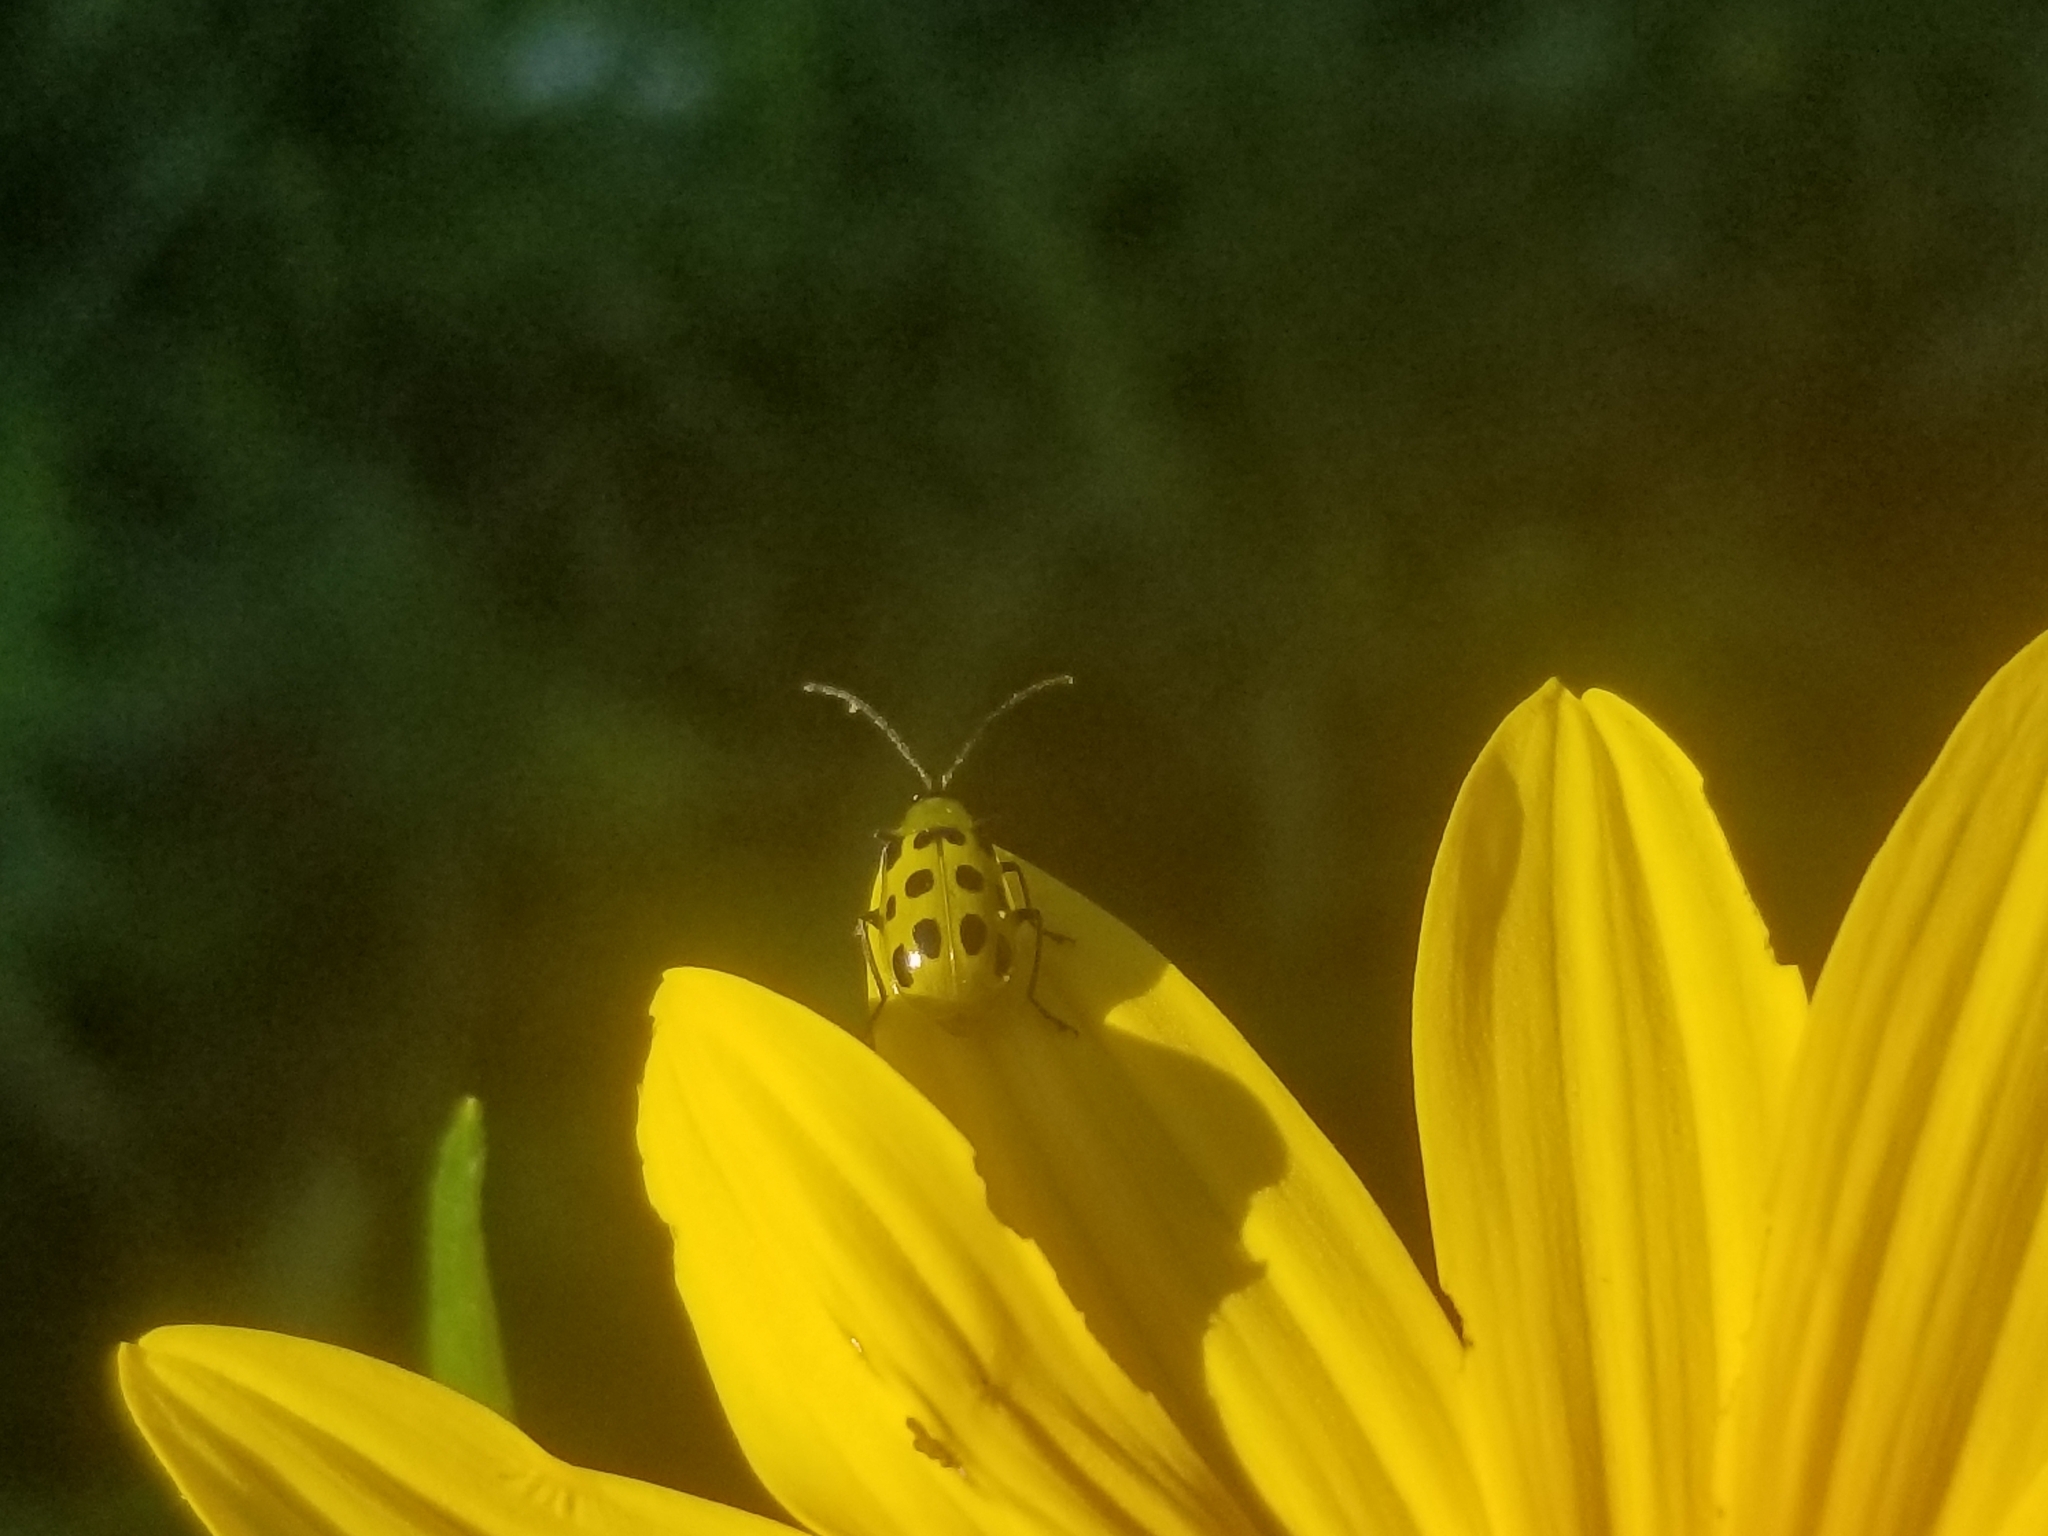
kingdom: Animalia
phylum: Arthropoda
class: Insecta
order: Coleoptera
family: Chrysomelidae
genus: Diabrotica
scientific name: Diabrotica undecimpunctata
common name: Spotted cucumber beetle
